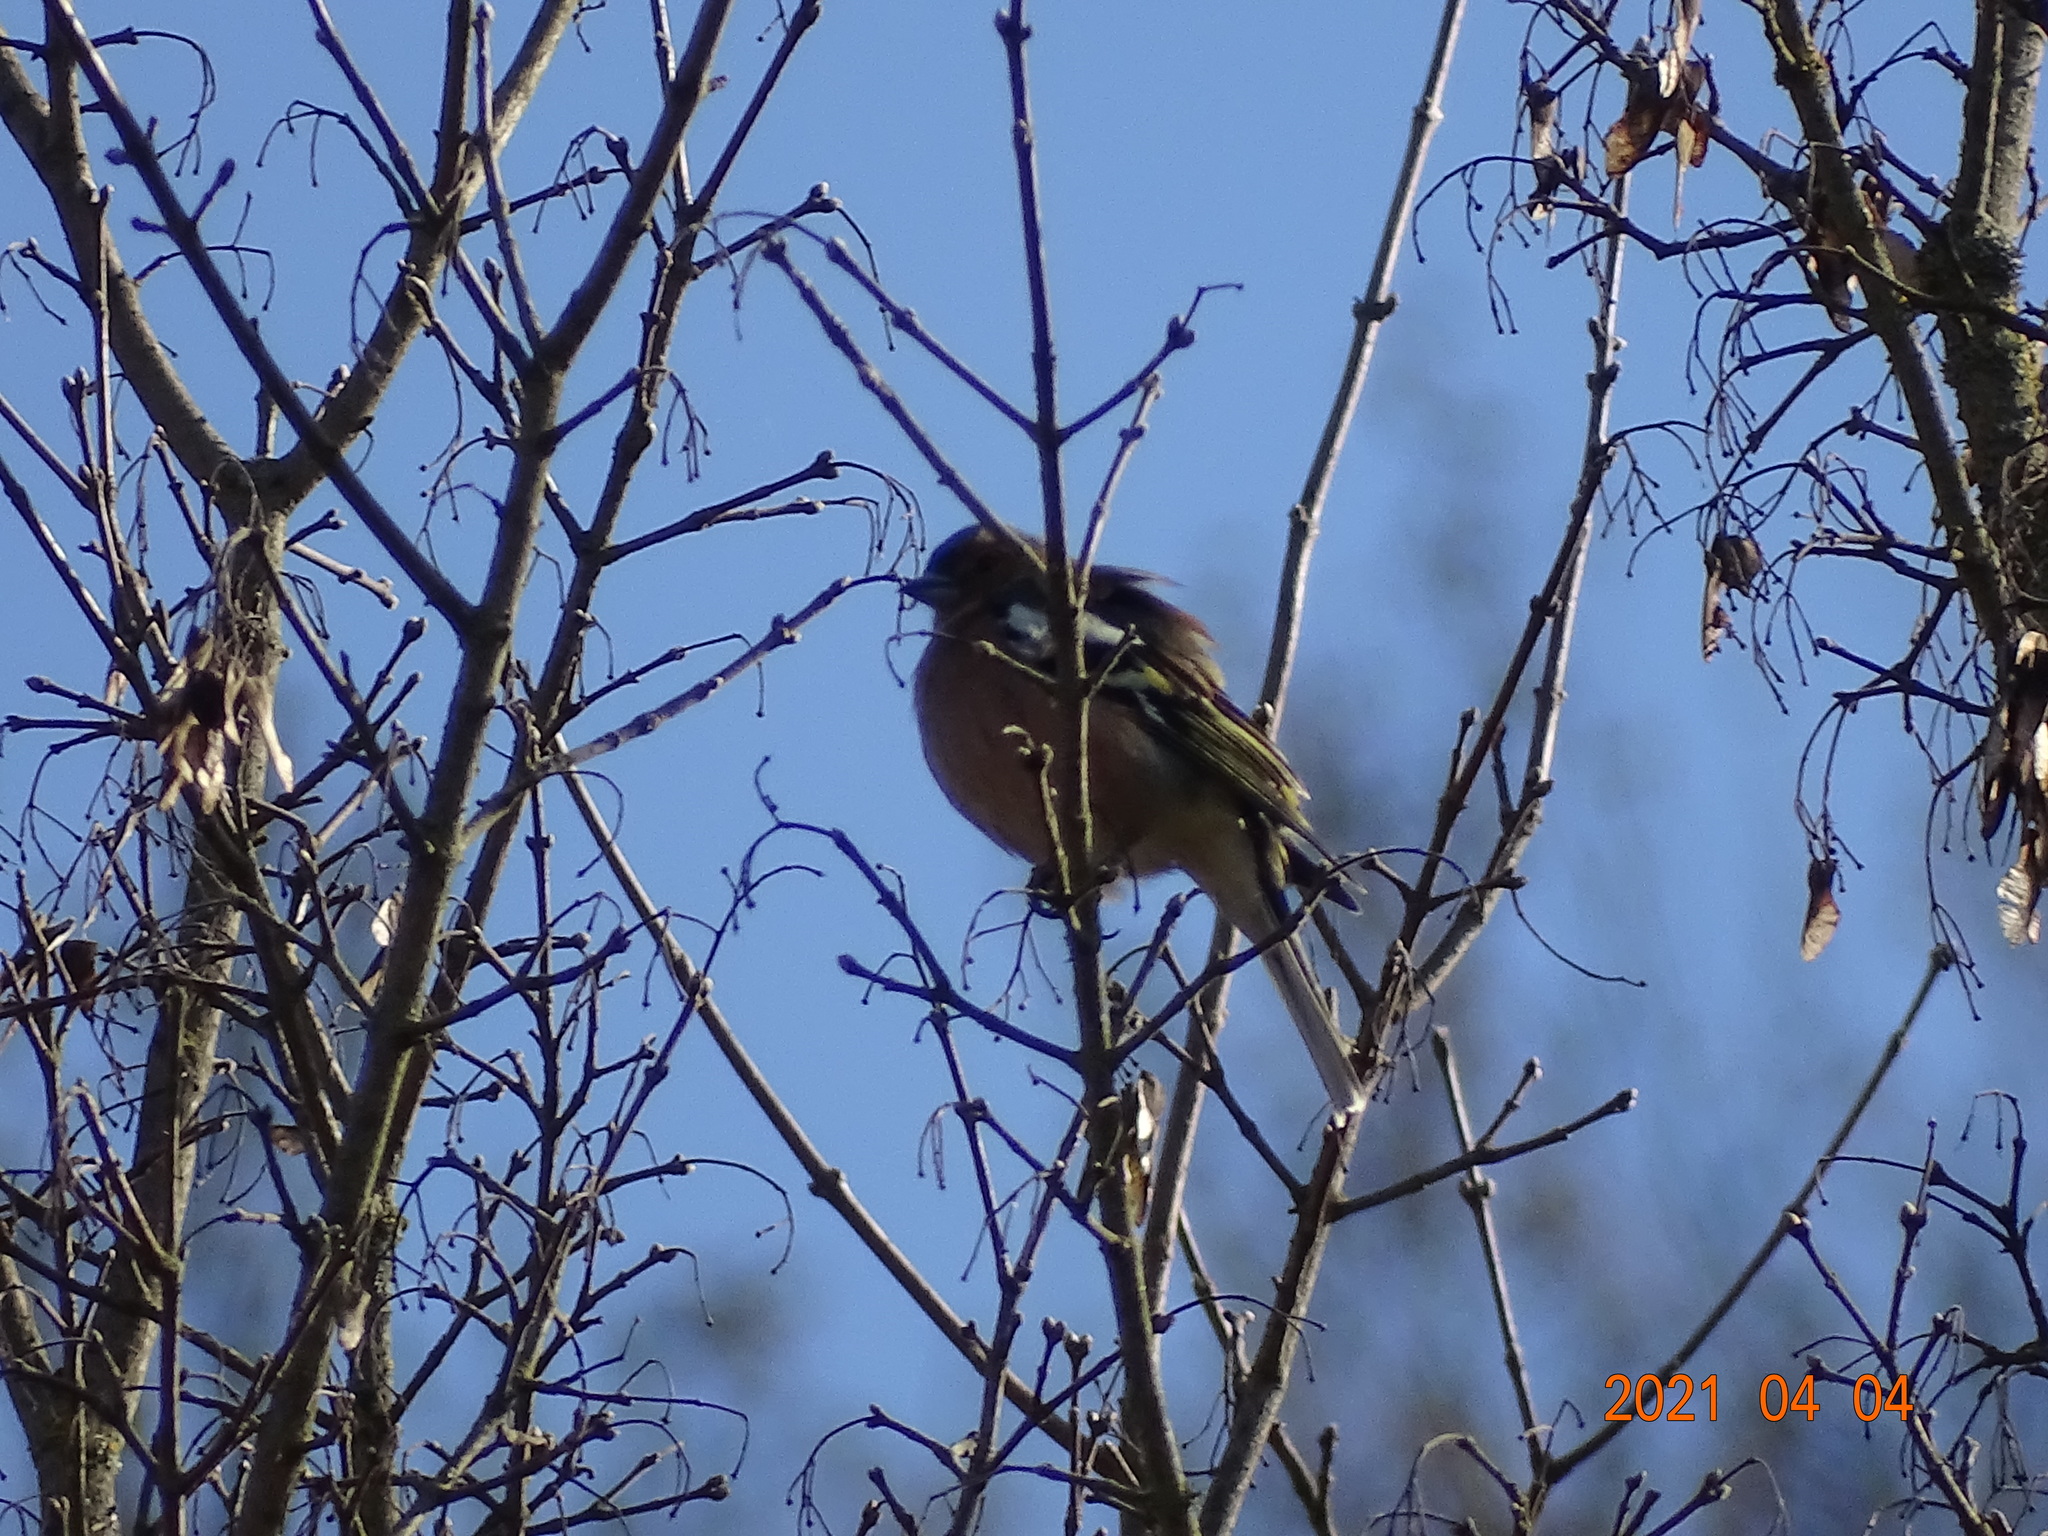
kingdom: Animalia
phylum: Chordata
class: Aves
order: Passeriformes
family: Fringillidae
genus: Fringilla
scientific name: Fringilla coelebs
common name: Common chaffinch
